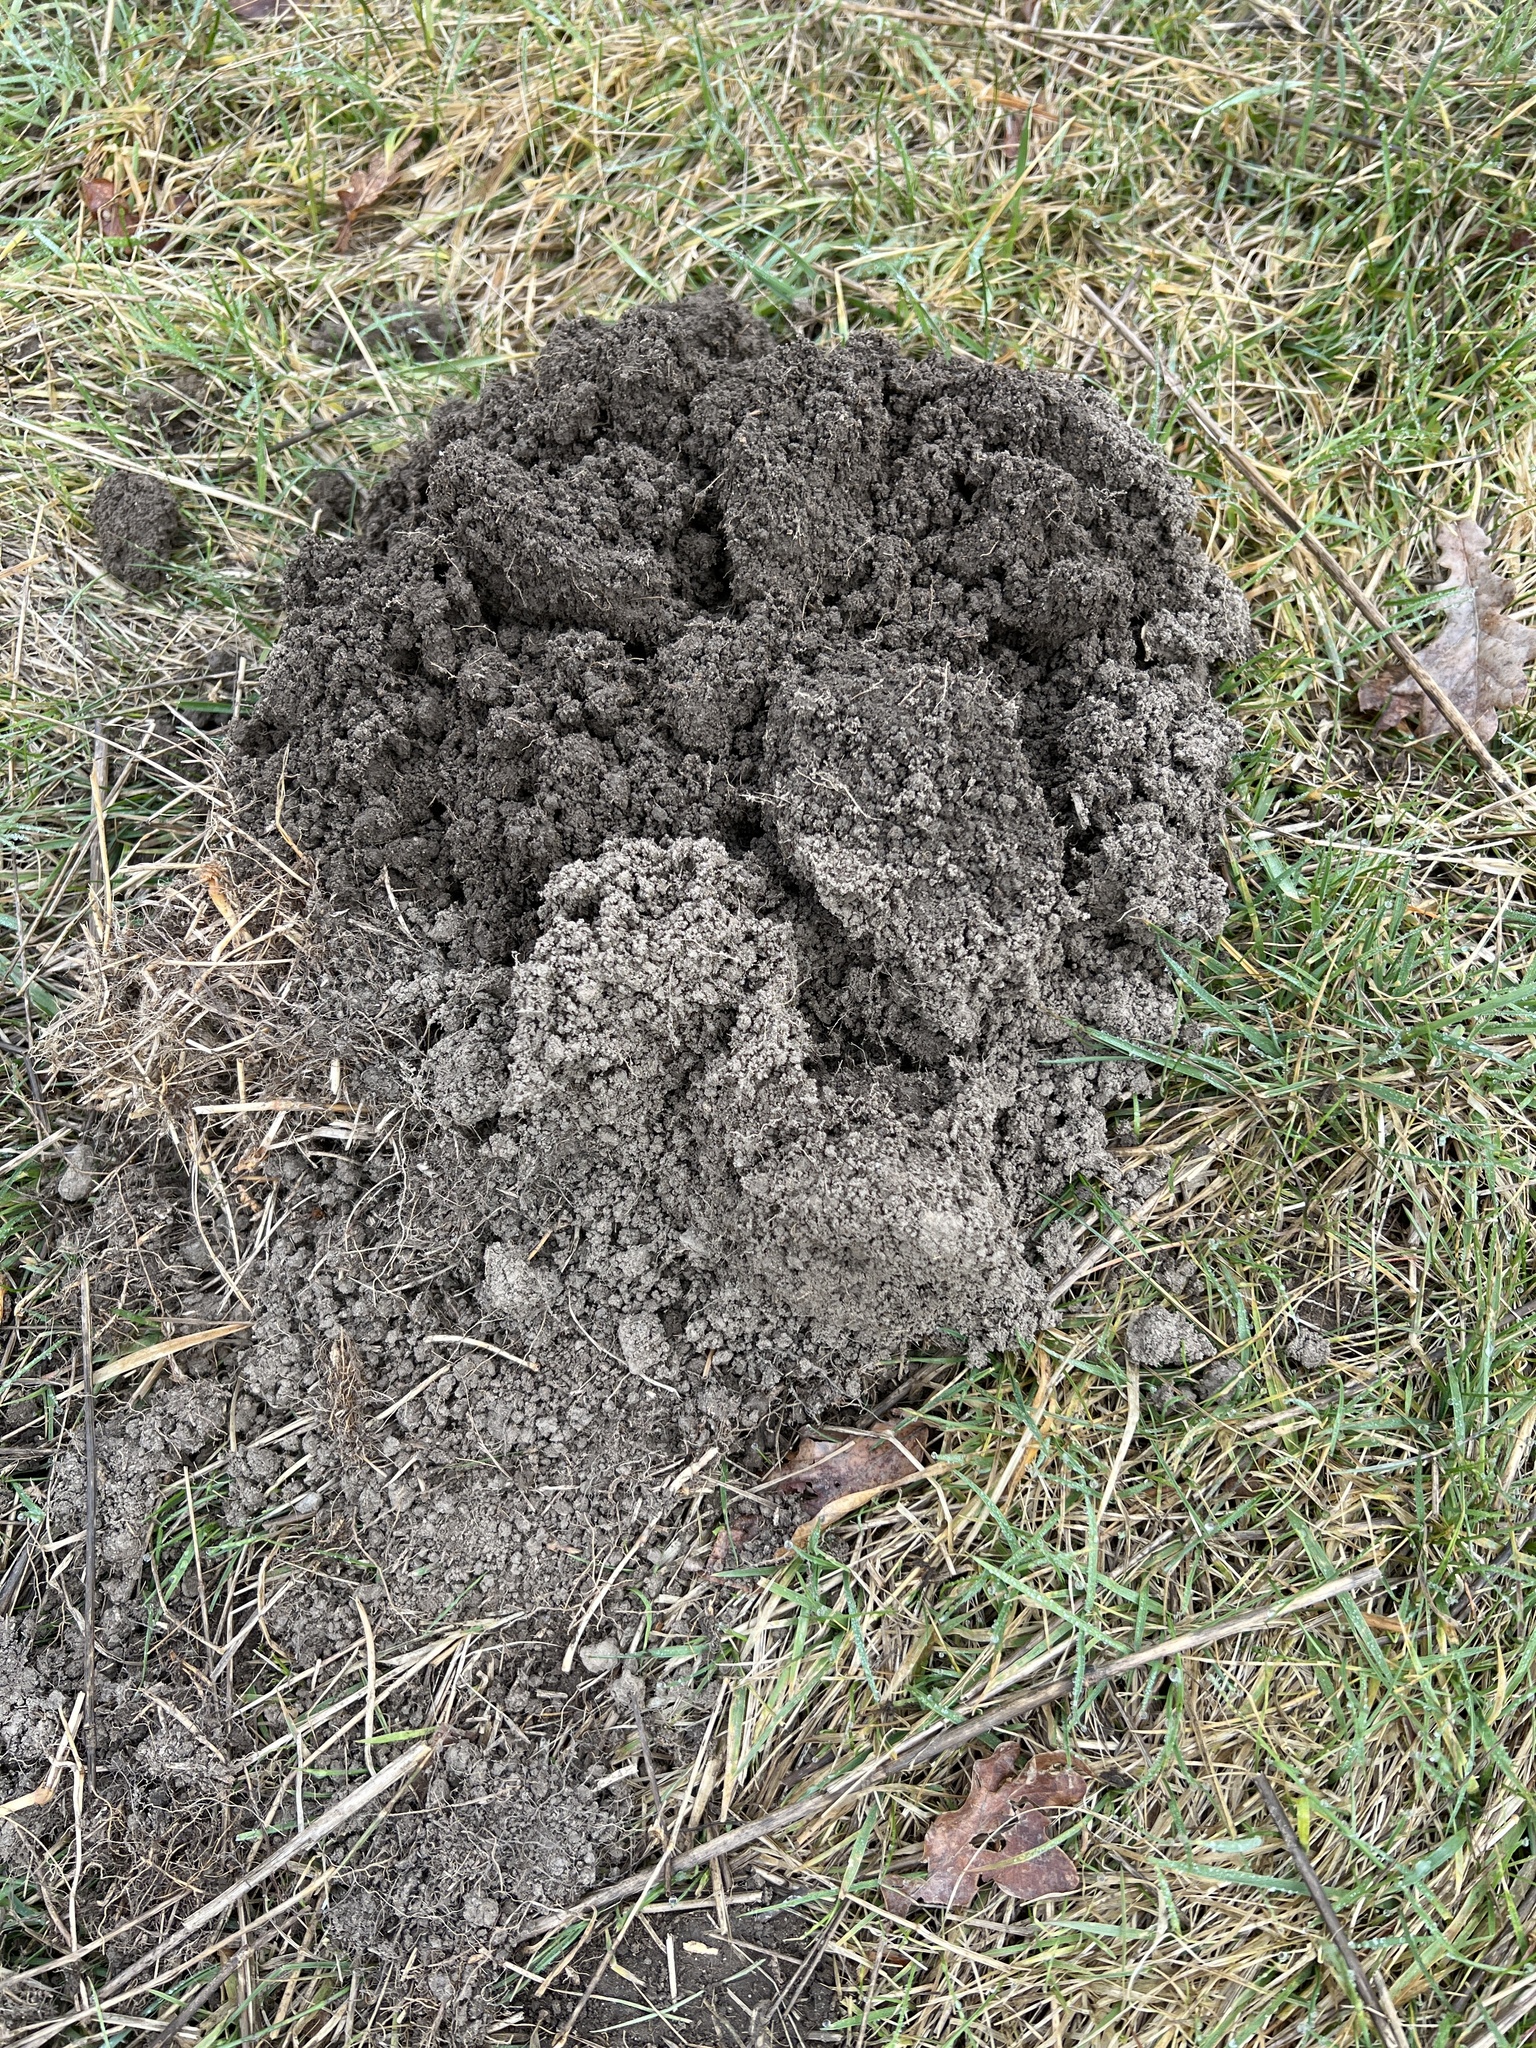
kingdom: Animalia
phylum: Chordata
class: Mammalia
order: Soricomorpha
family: Talpidae
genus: Talpa
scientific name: Talpa europaea
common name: European mole
